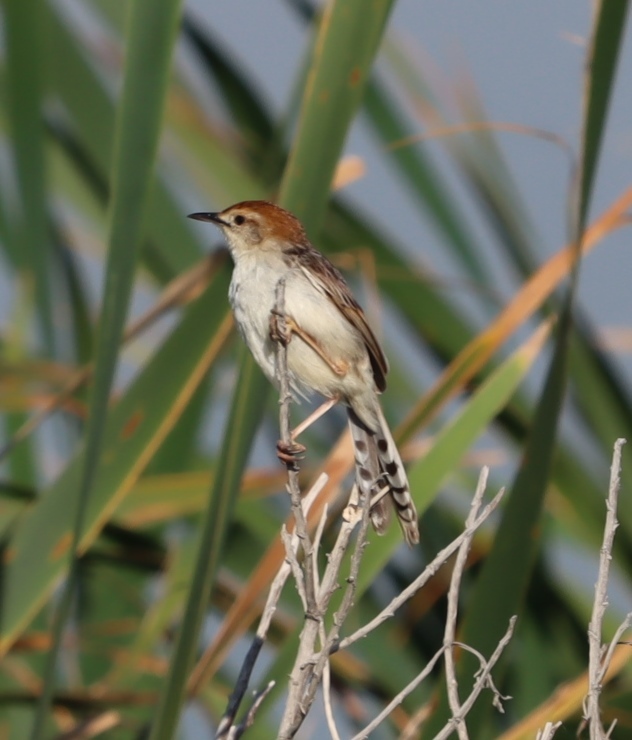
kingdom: Animalia
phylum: Chordata
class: Aves
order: Passeriformes
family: Cisticolidae
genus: Cisticola
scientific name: Cisticola tinniens
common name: Levaillant's cisticola
